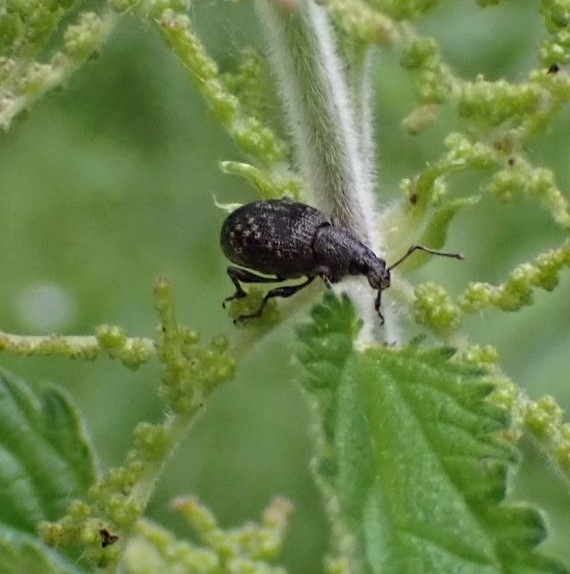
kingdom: Animalia
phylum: Arthropoda
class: Insecta
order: Coleoptera
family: Curculionidae
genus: Otiorhynchus
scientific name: Otiorhynchus tristis
